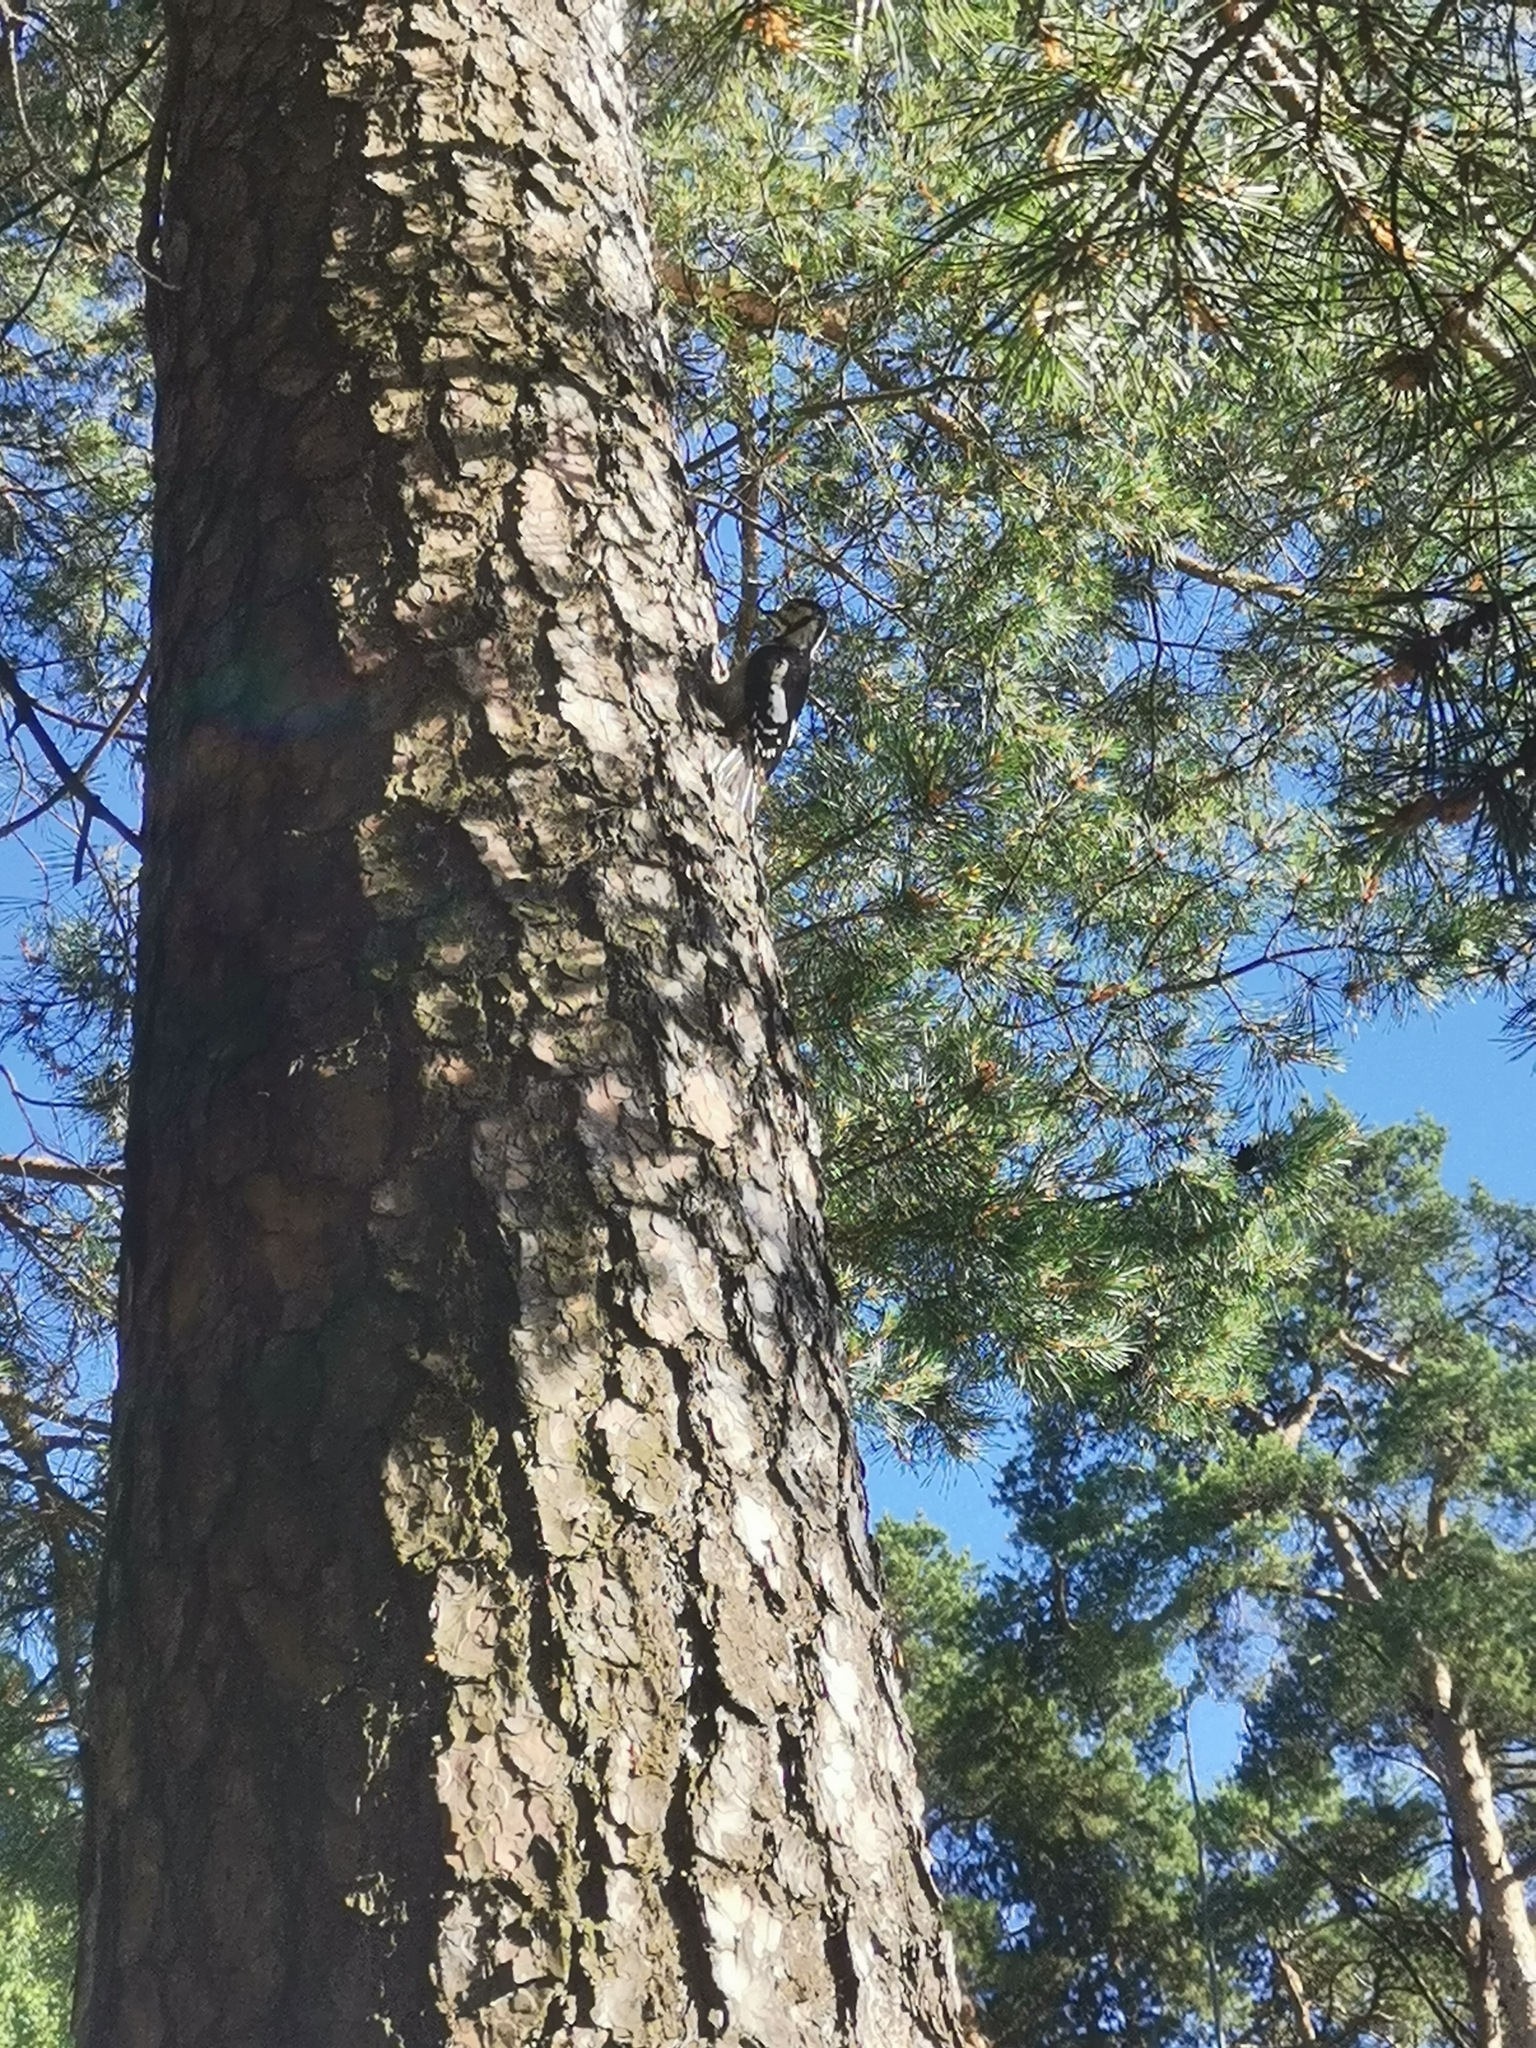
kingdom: Animalia
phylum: Chordata
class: Aves
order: Piciformes
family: Picidae
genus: Dendrocopos
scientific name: Dendrocopos major
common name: Great spotted woodpecker
